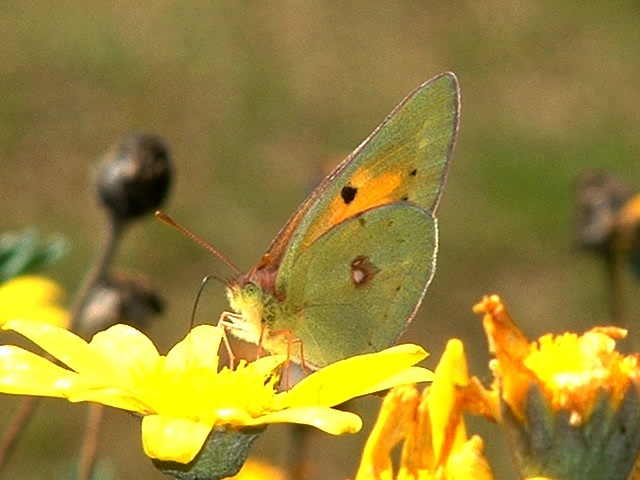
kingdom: Animalia
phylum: Arthropoda
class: Insecta
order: Lepidoptera
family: Pieridae
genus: Colias
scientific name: Colias electo
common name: African clouded yellow
